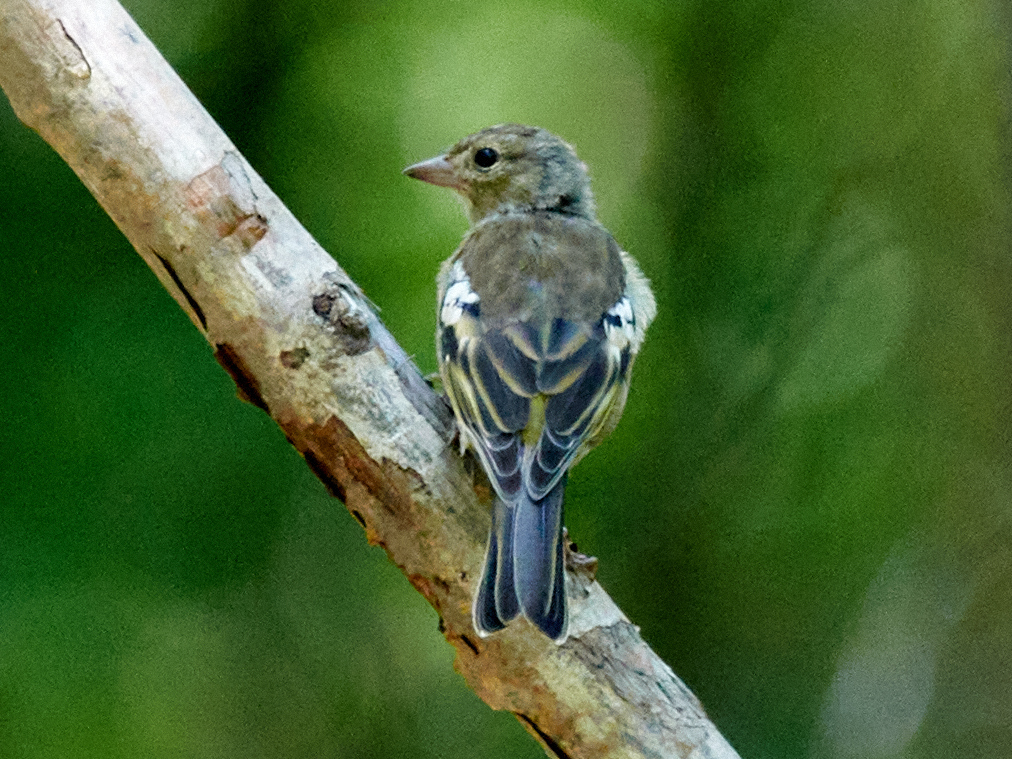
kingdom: Animalia
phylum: Chordata
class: Aves
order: Passeriformes
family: Fringillidae
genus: Fringilla
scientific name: Fringilla coelebs
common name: Common chaffinch
